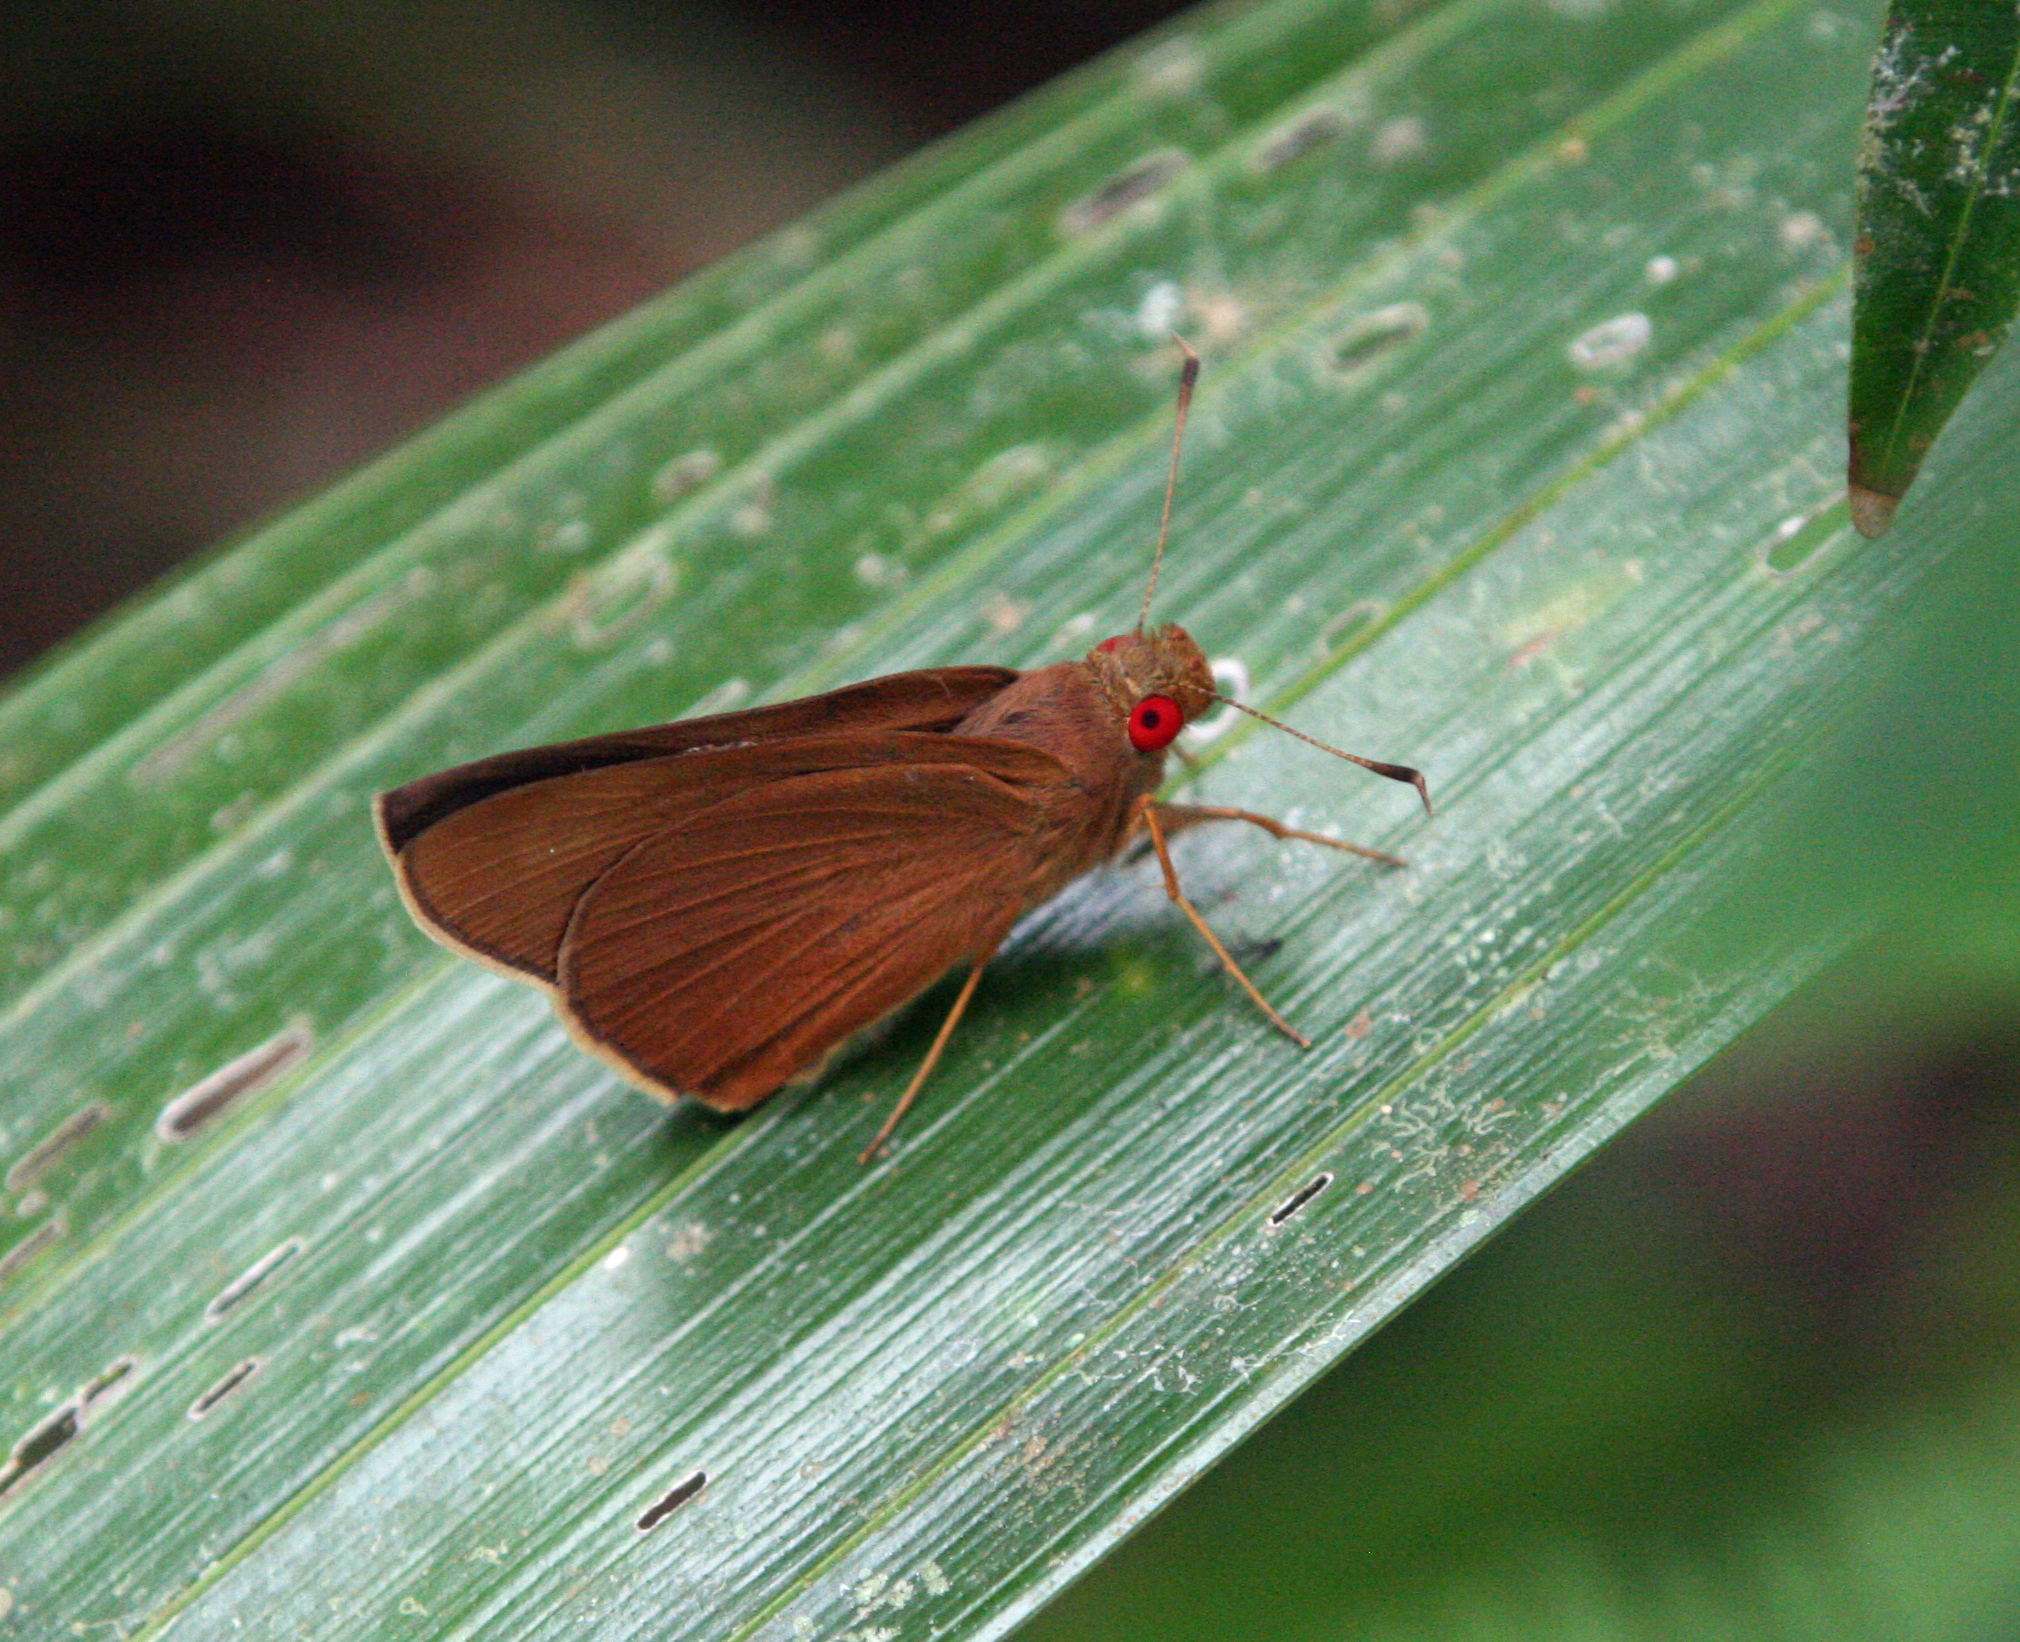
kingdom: Animalia
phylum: Arthropoda
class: Insecta
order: Lepidoptera
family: Hesperiidae
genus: Matapa
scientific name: Matapa aria
